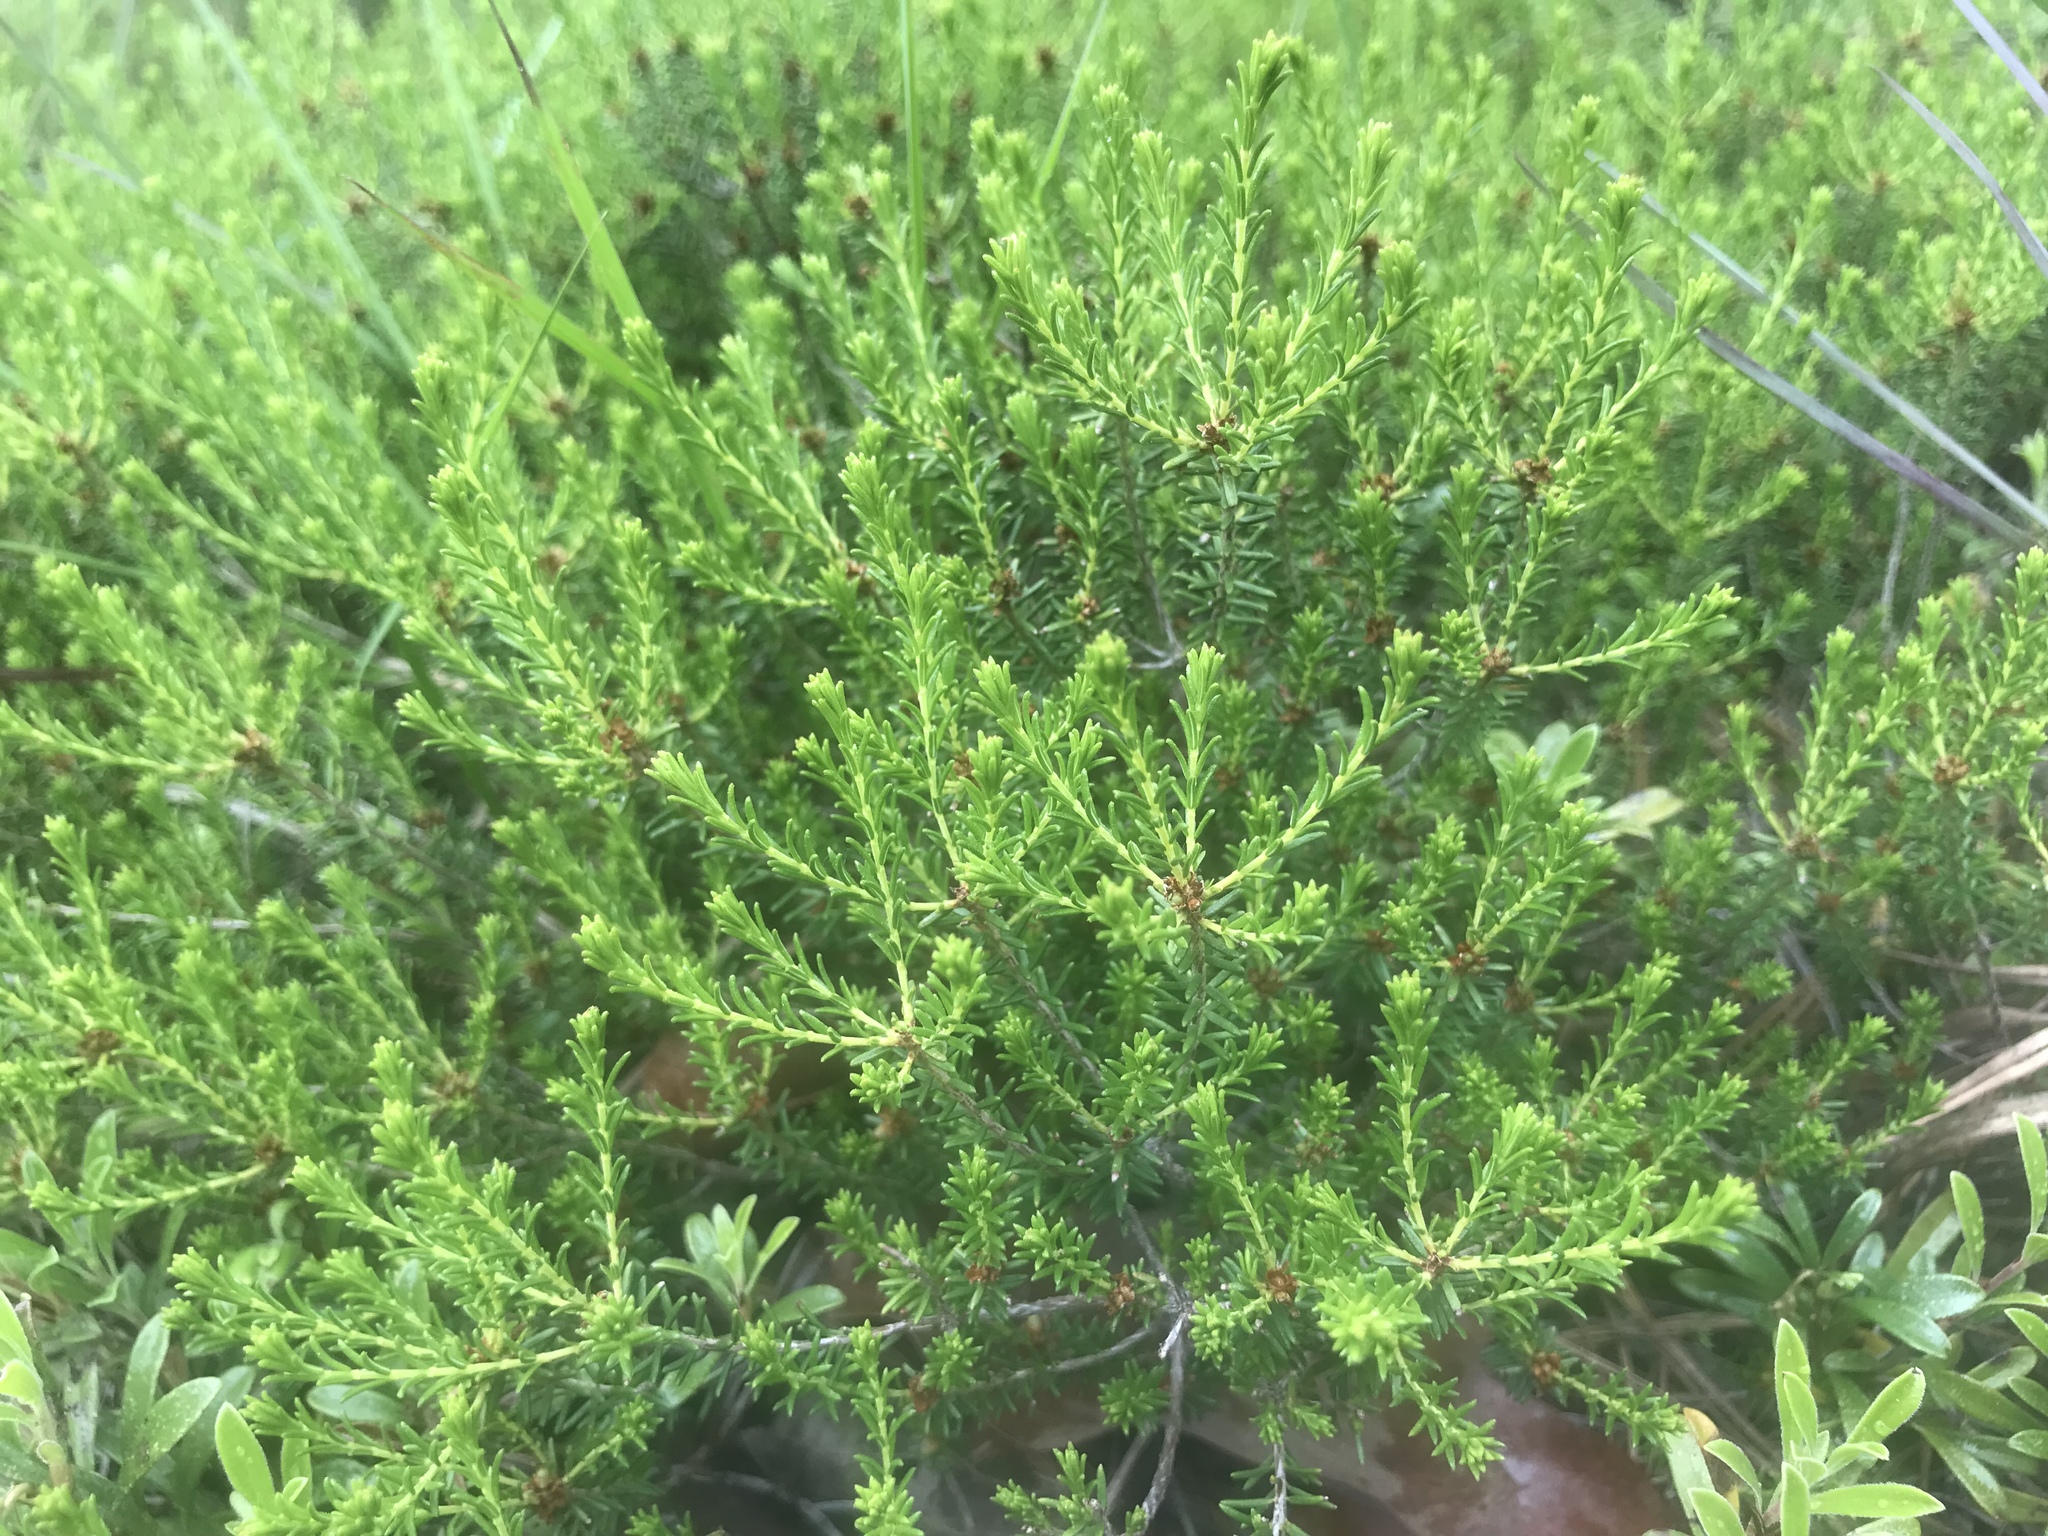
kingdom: Plantae
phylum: Tracheophyta
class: Magnoliopsida
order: Ericales
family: Ericaceae
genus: Corema
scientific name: Corema conradii
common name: Broom-crowberry
